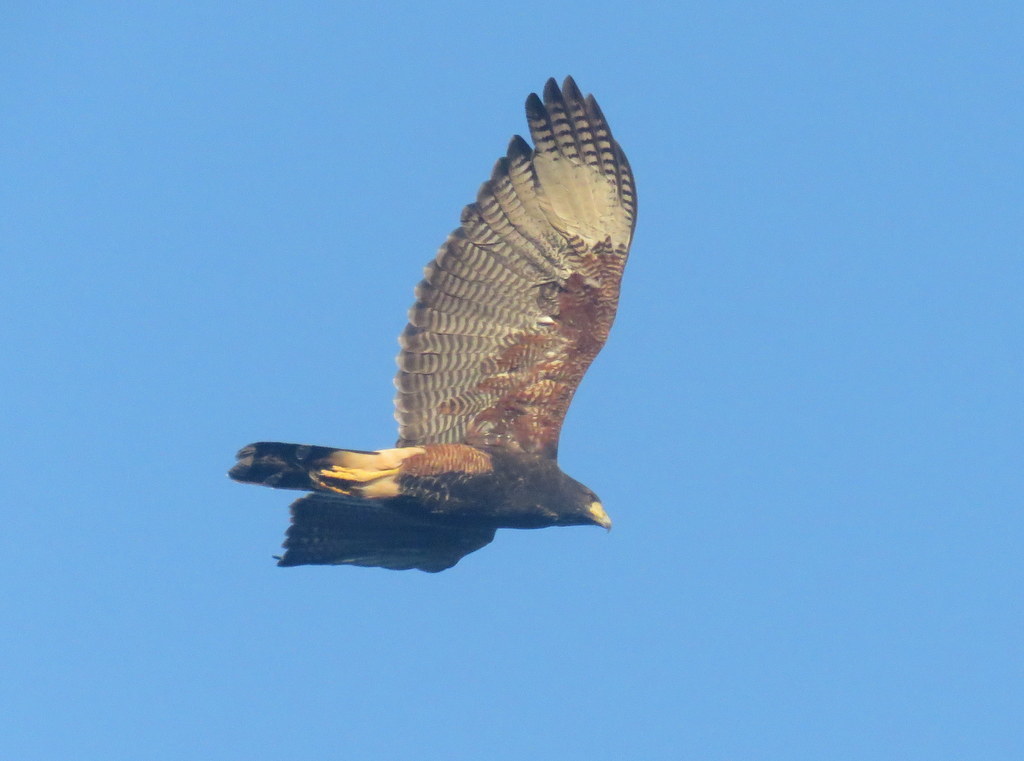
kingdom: Animalia
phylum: Chordata
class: Aves
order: Accipitriformes
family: Accipitridae
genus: Parabuteo
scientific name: Parabuteo unicinctus
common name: Harris's hawk
